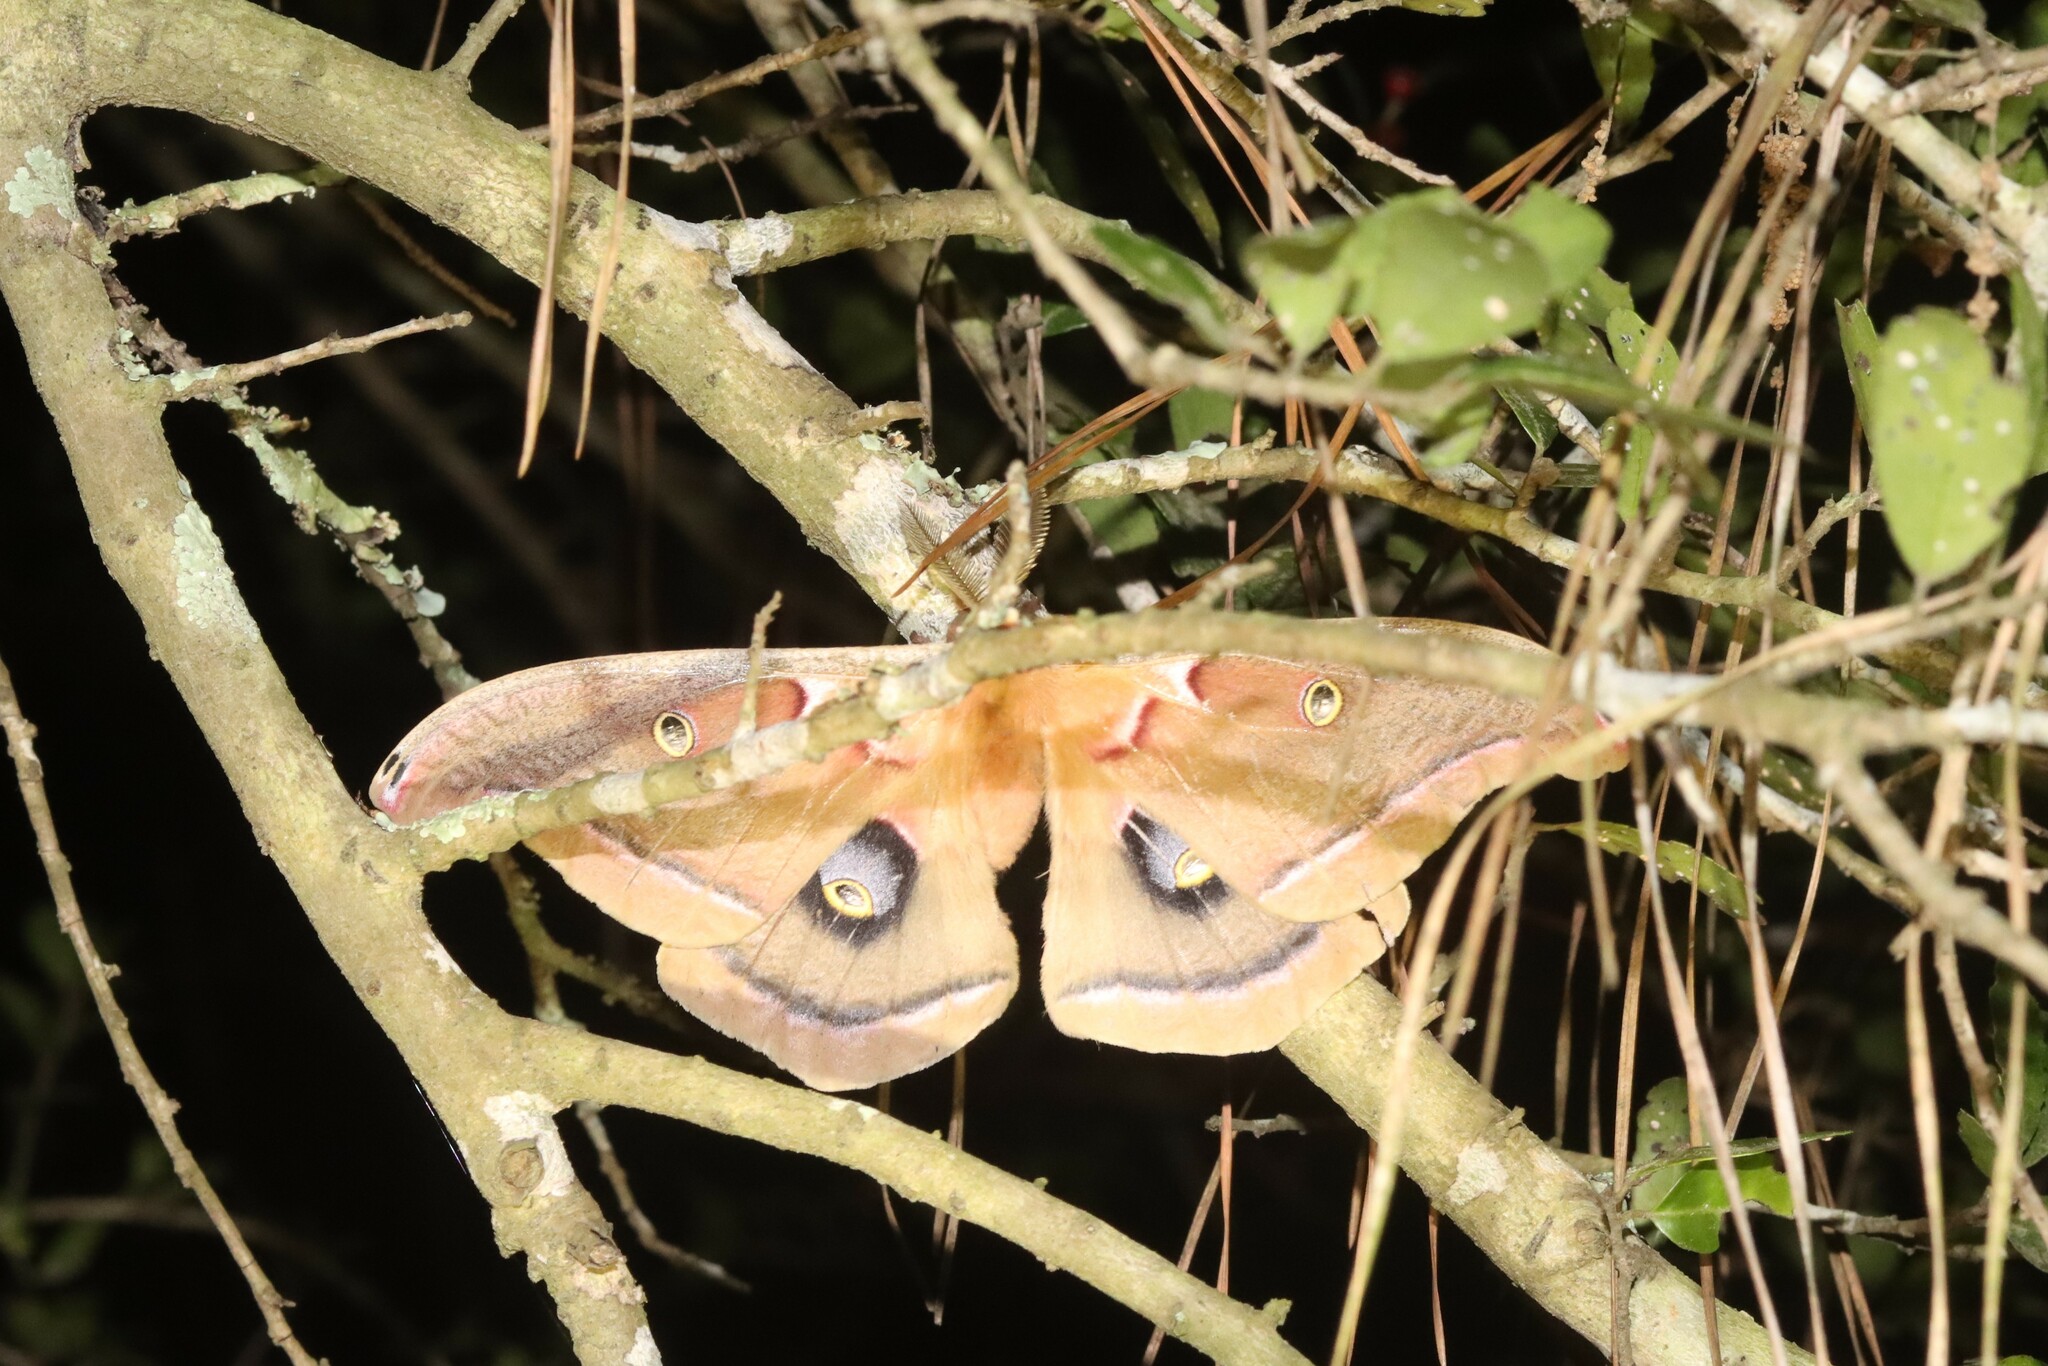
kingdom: Animalia
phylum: Arthropoda
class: Insecta
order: Lepidoptera
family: Saturniidae
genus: Antheraea
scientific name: Antheraea polyphemus
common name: Polyphemus moth
